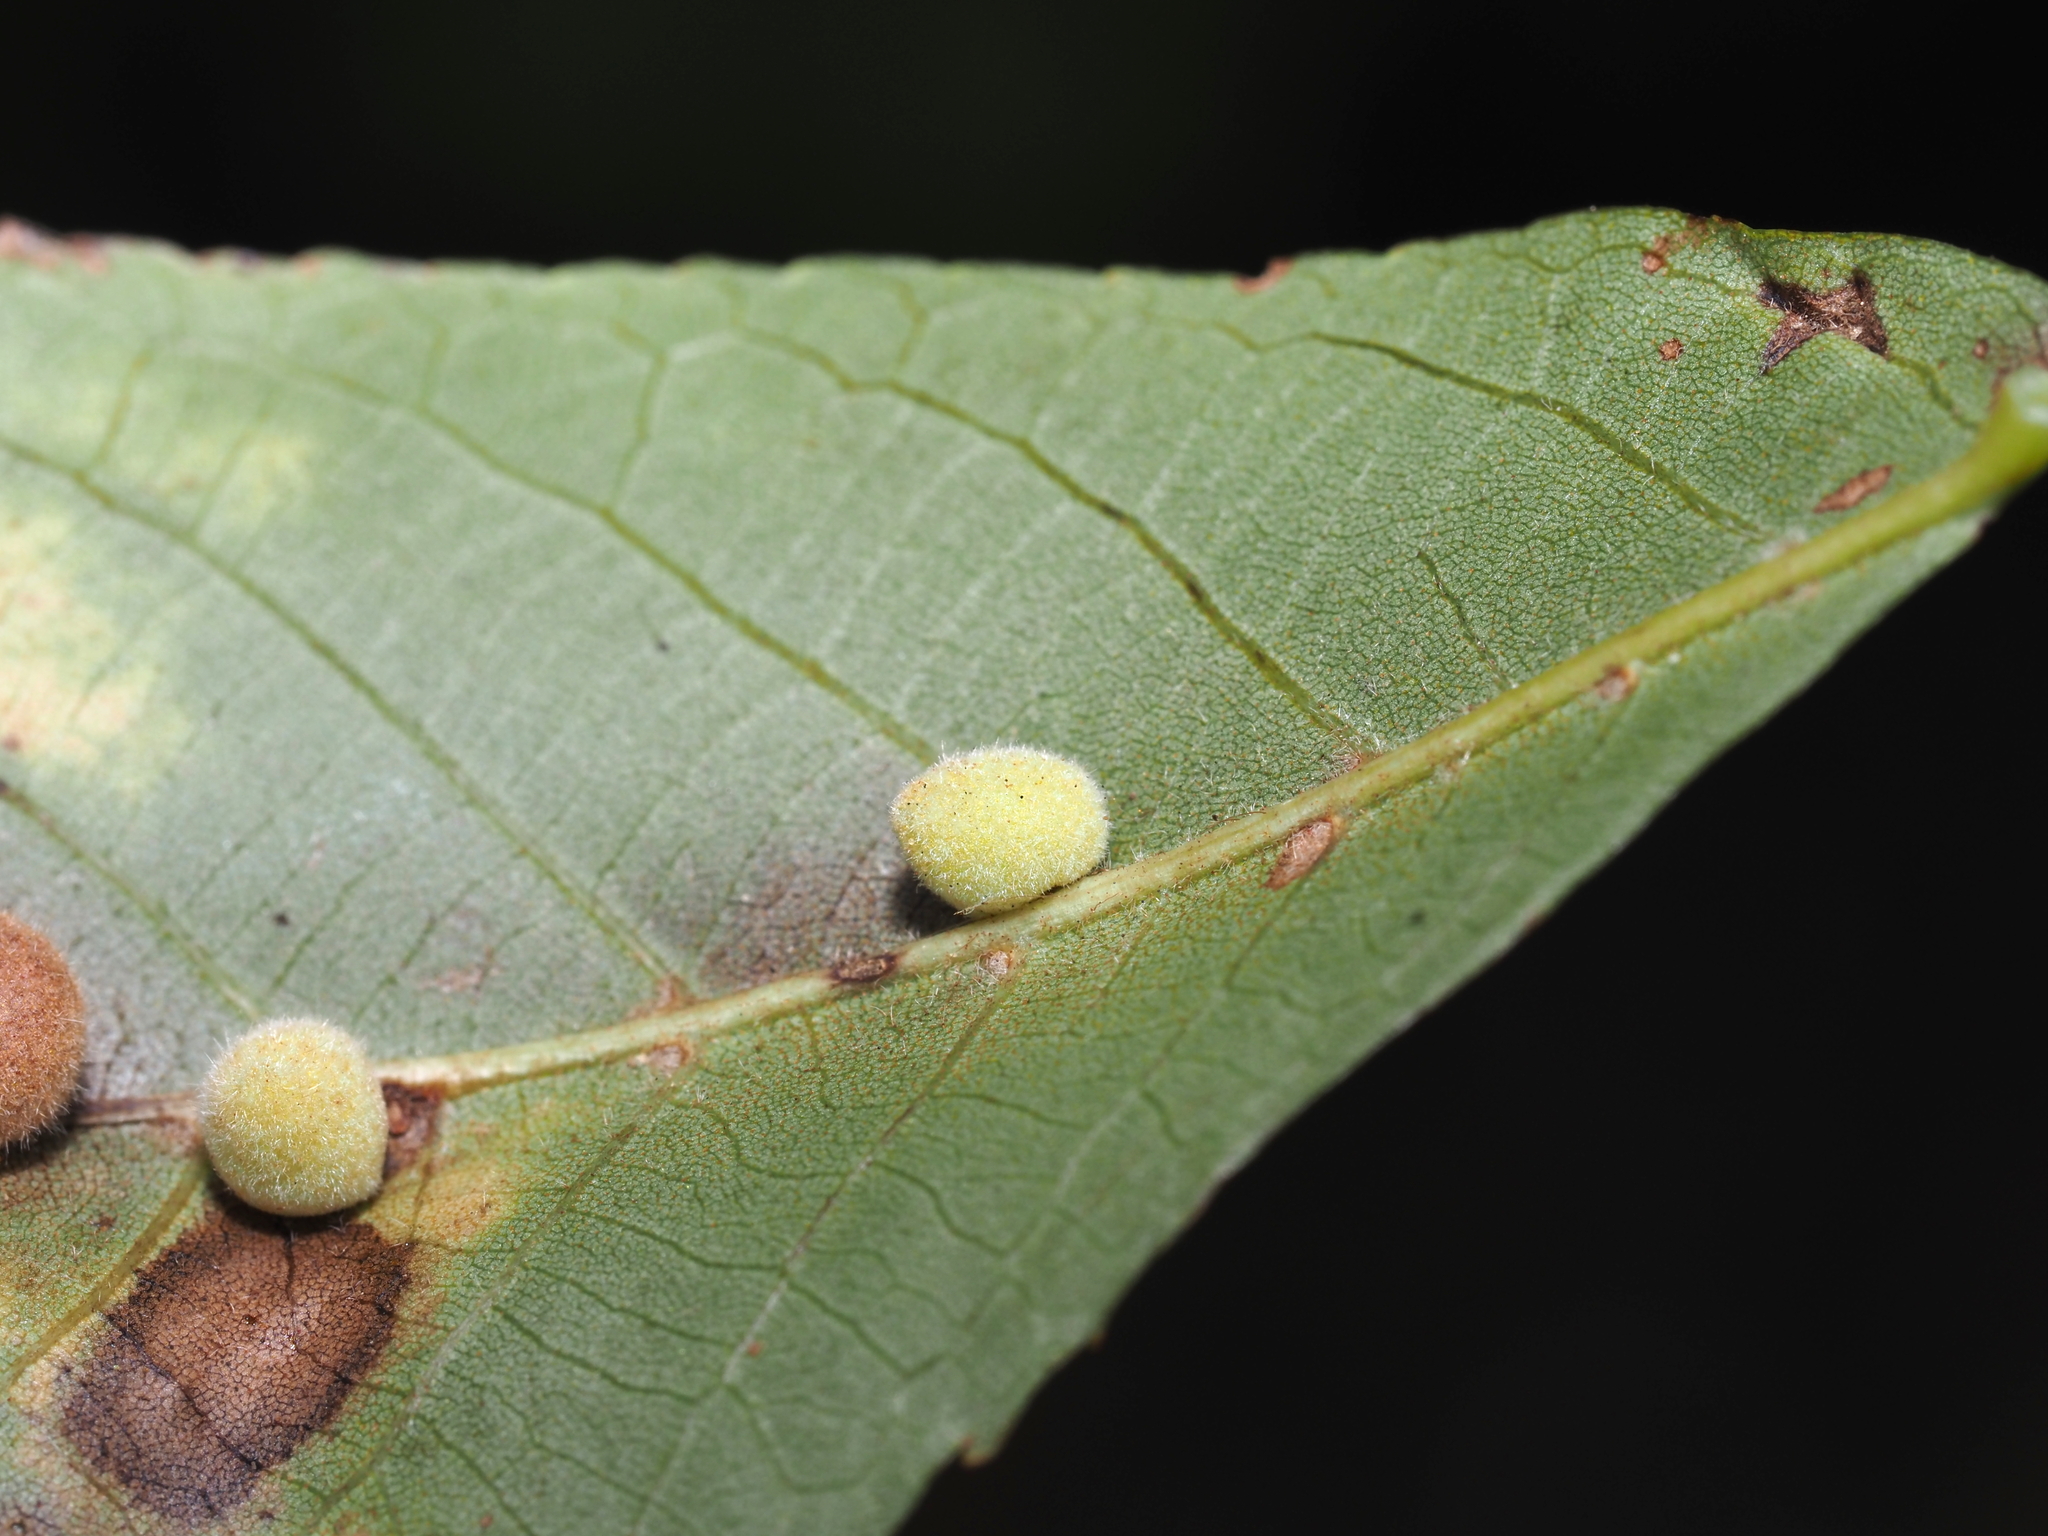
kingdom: Animalia
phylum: Arthropoda
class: Insecta
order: Diptera
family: Cecidomyiidae
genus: Caryomyia
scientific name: Caryomyia persicoides
